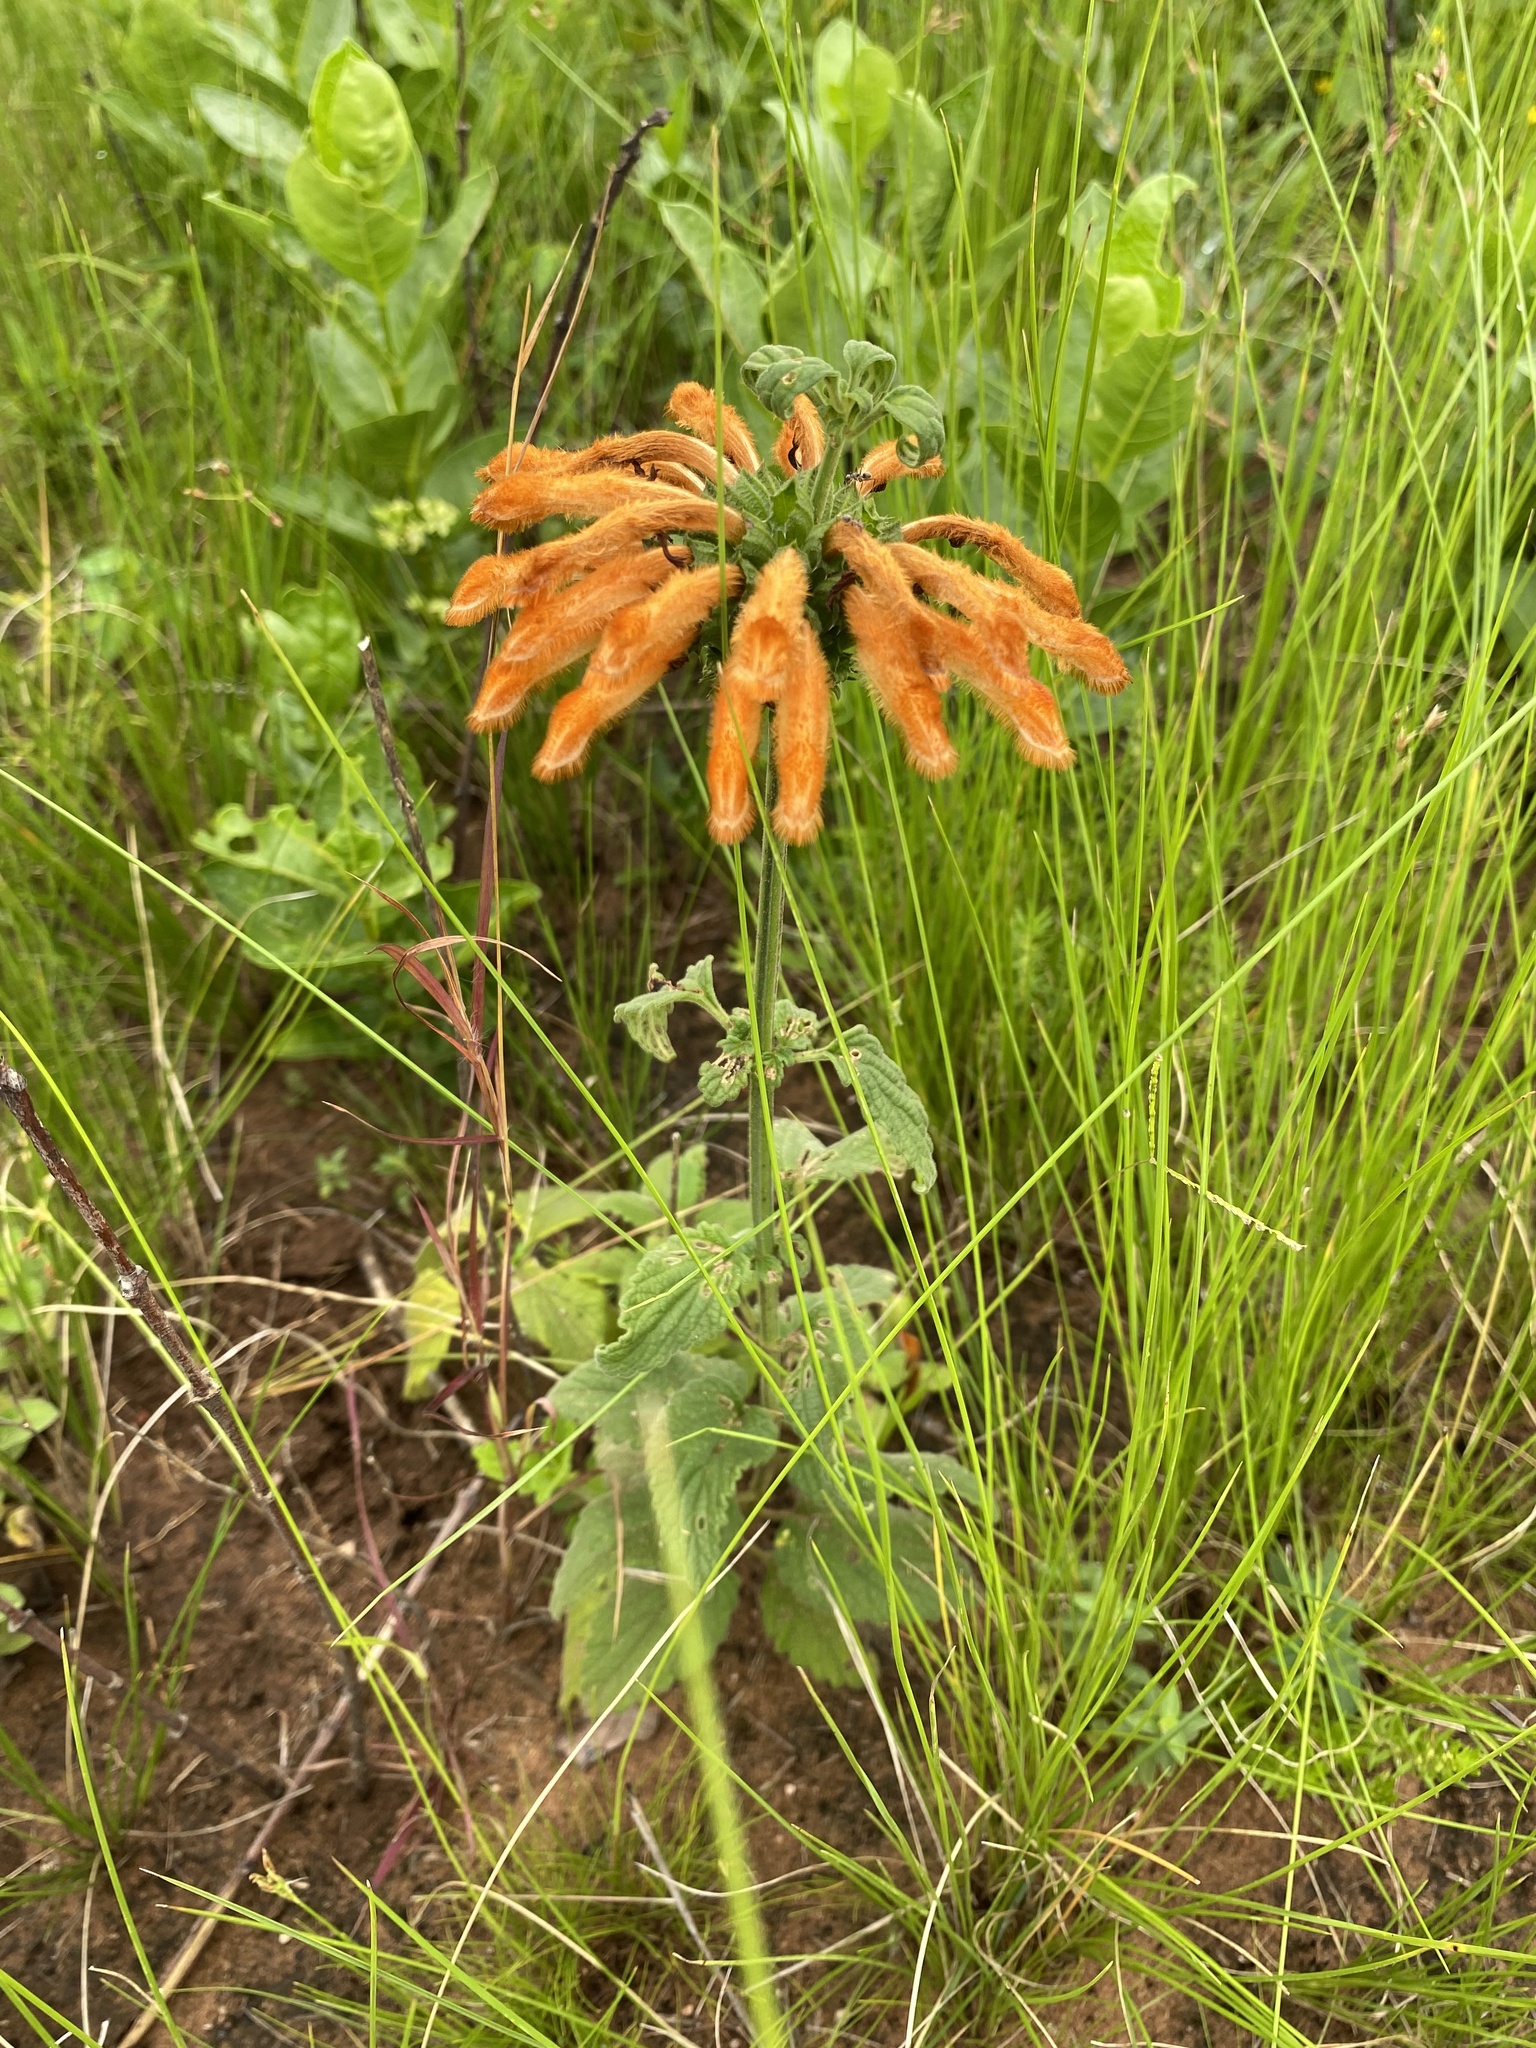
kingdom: Plantae
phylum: Tracheophyta
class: Magnoliopsida
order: Lamiales
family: Lamiaceae
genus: Leonotis
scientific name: Leonotis ocymifolia
